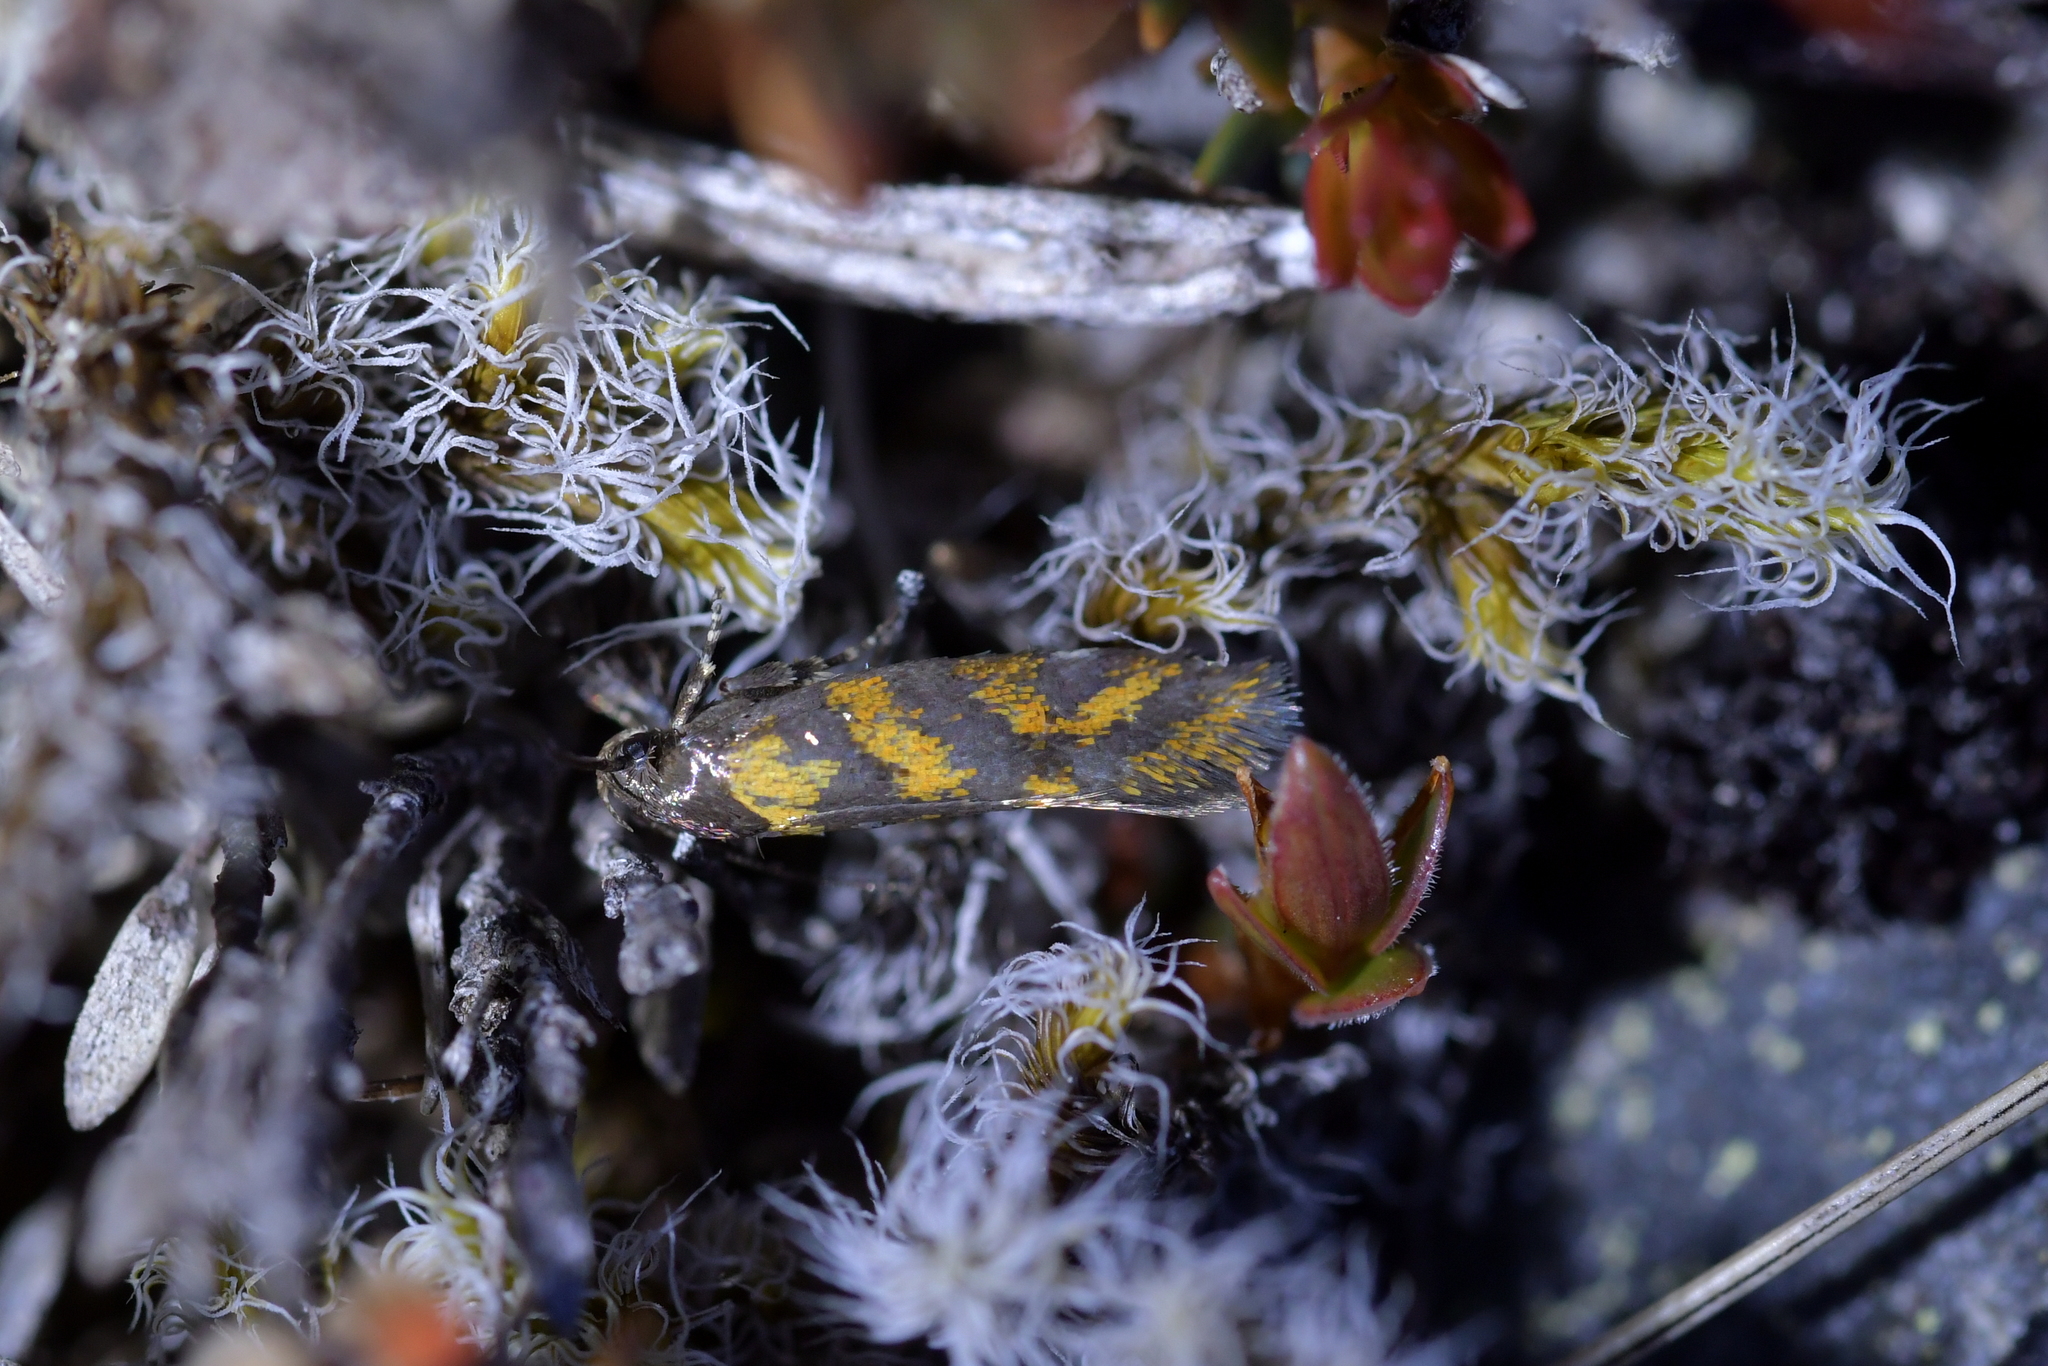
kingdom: Animalia
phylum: Arthropoda
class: Insecta
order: Lepidoptera
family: Oecophoridae
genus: Tingena
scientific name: Tingena compsogramma
